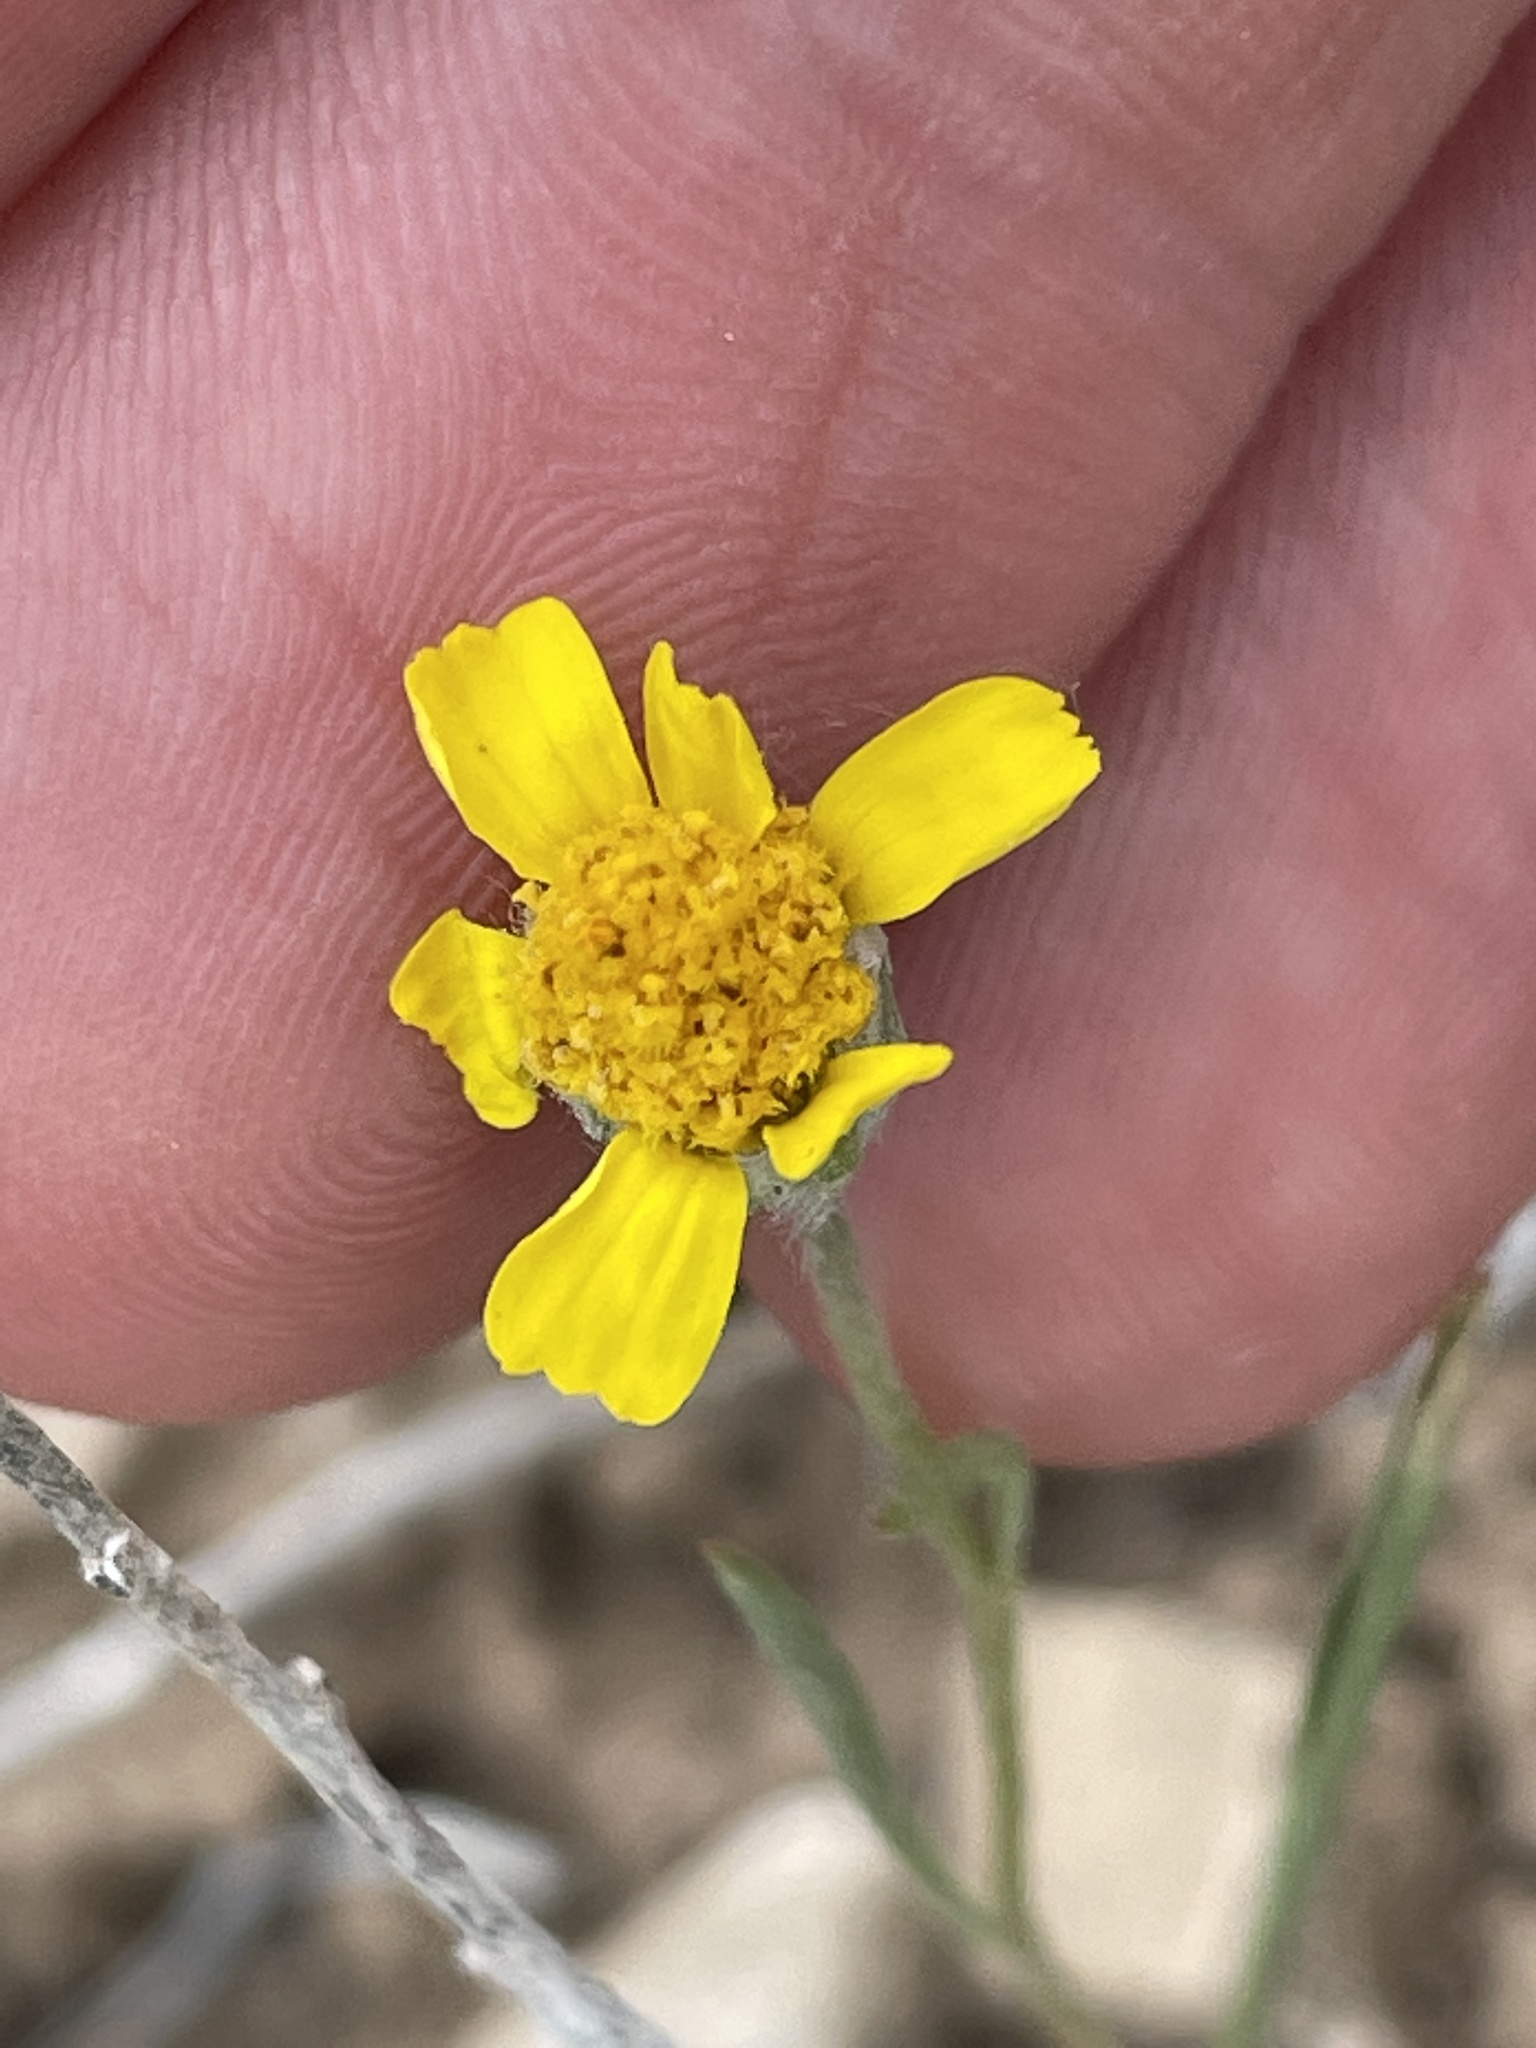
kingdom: Plantae
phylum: Tracheophyta
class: Magnoliopsida
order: Asterales
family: Asteraceae
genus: Tetraneuris
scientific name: Tetraneuris ivesiana
